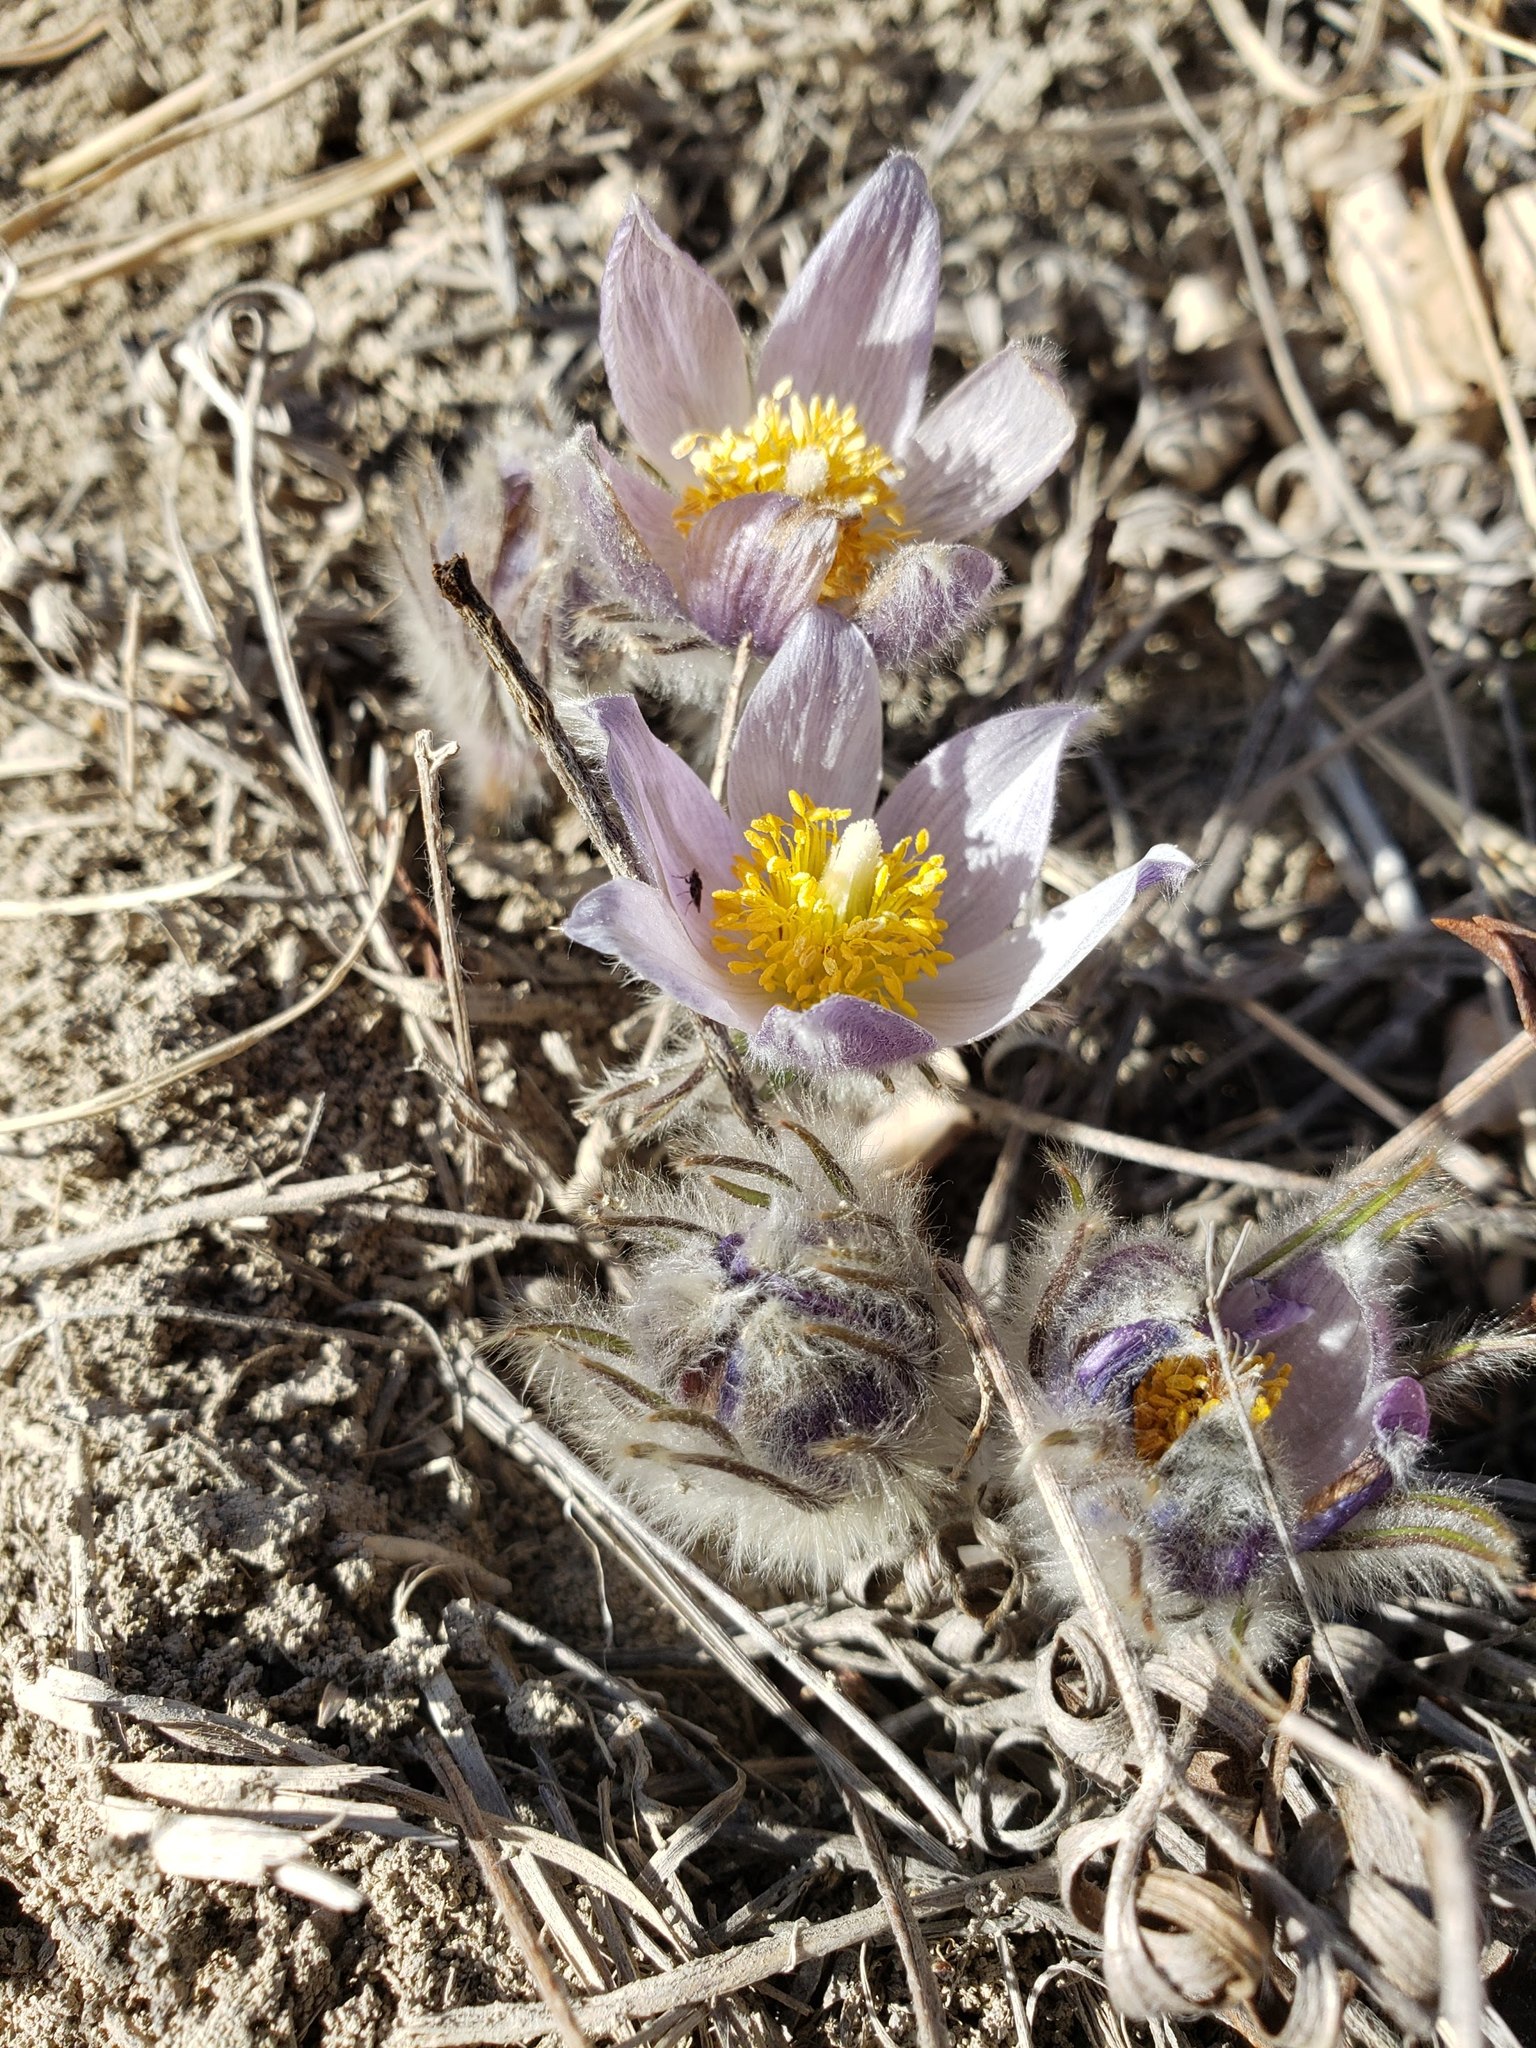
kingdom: Plantae
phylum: Tracheophyta
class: Magnoliopsida
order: Ranunculales
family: Ranunculaceae
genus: Pulsatilla
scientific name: Pulsatilla nuttalliana
